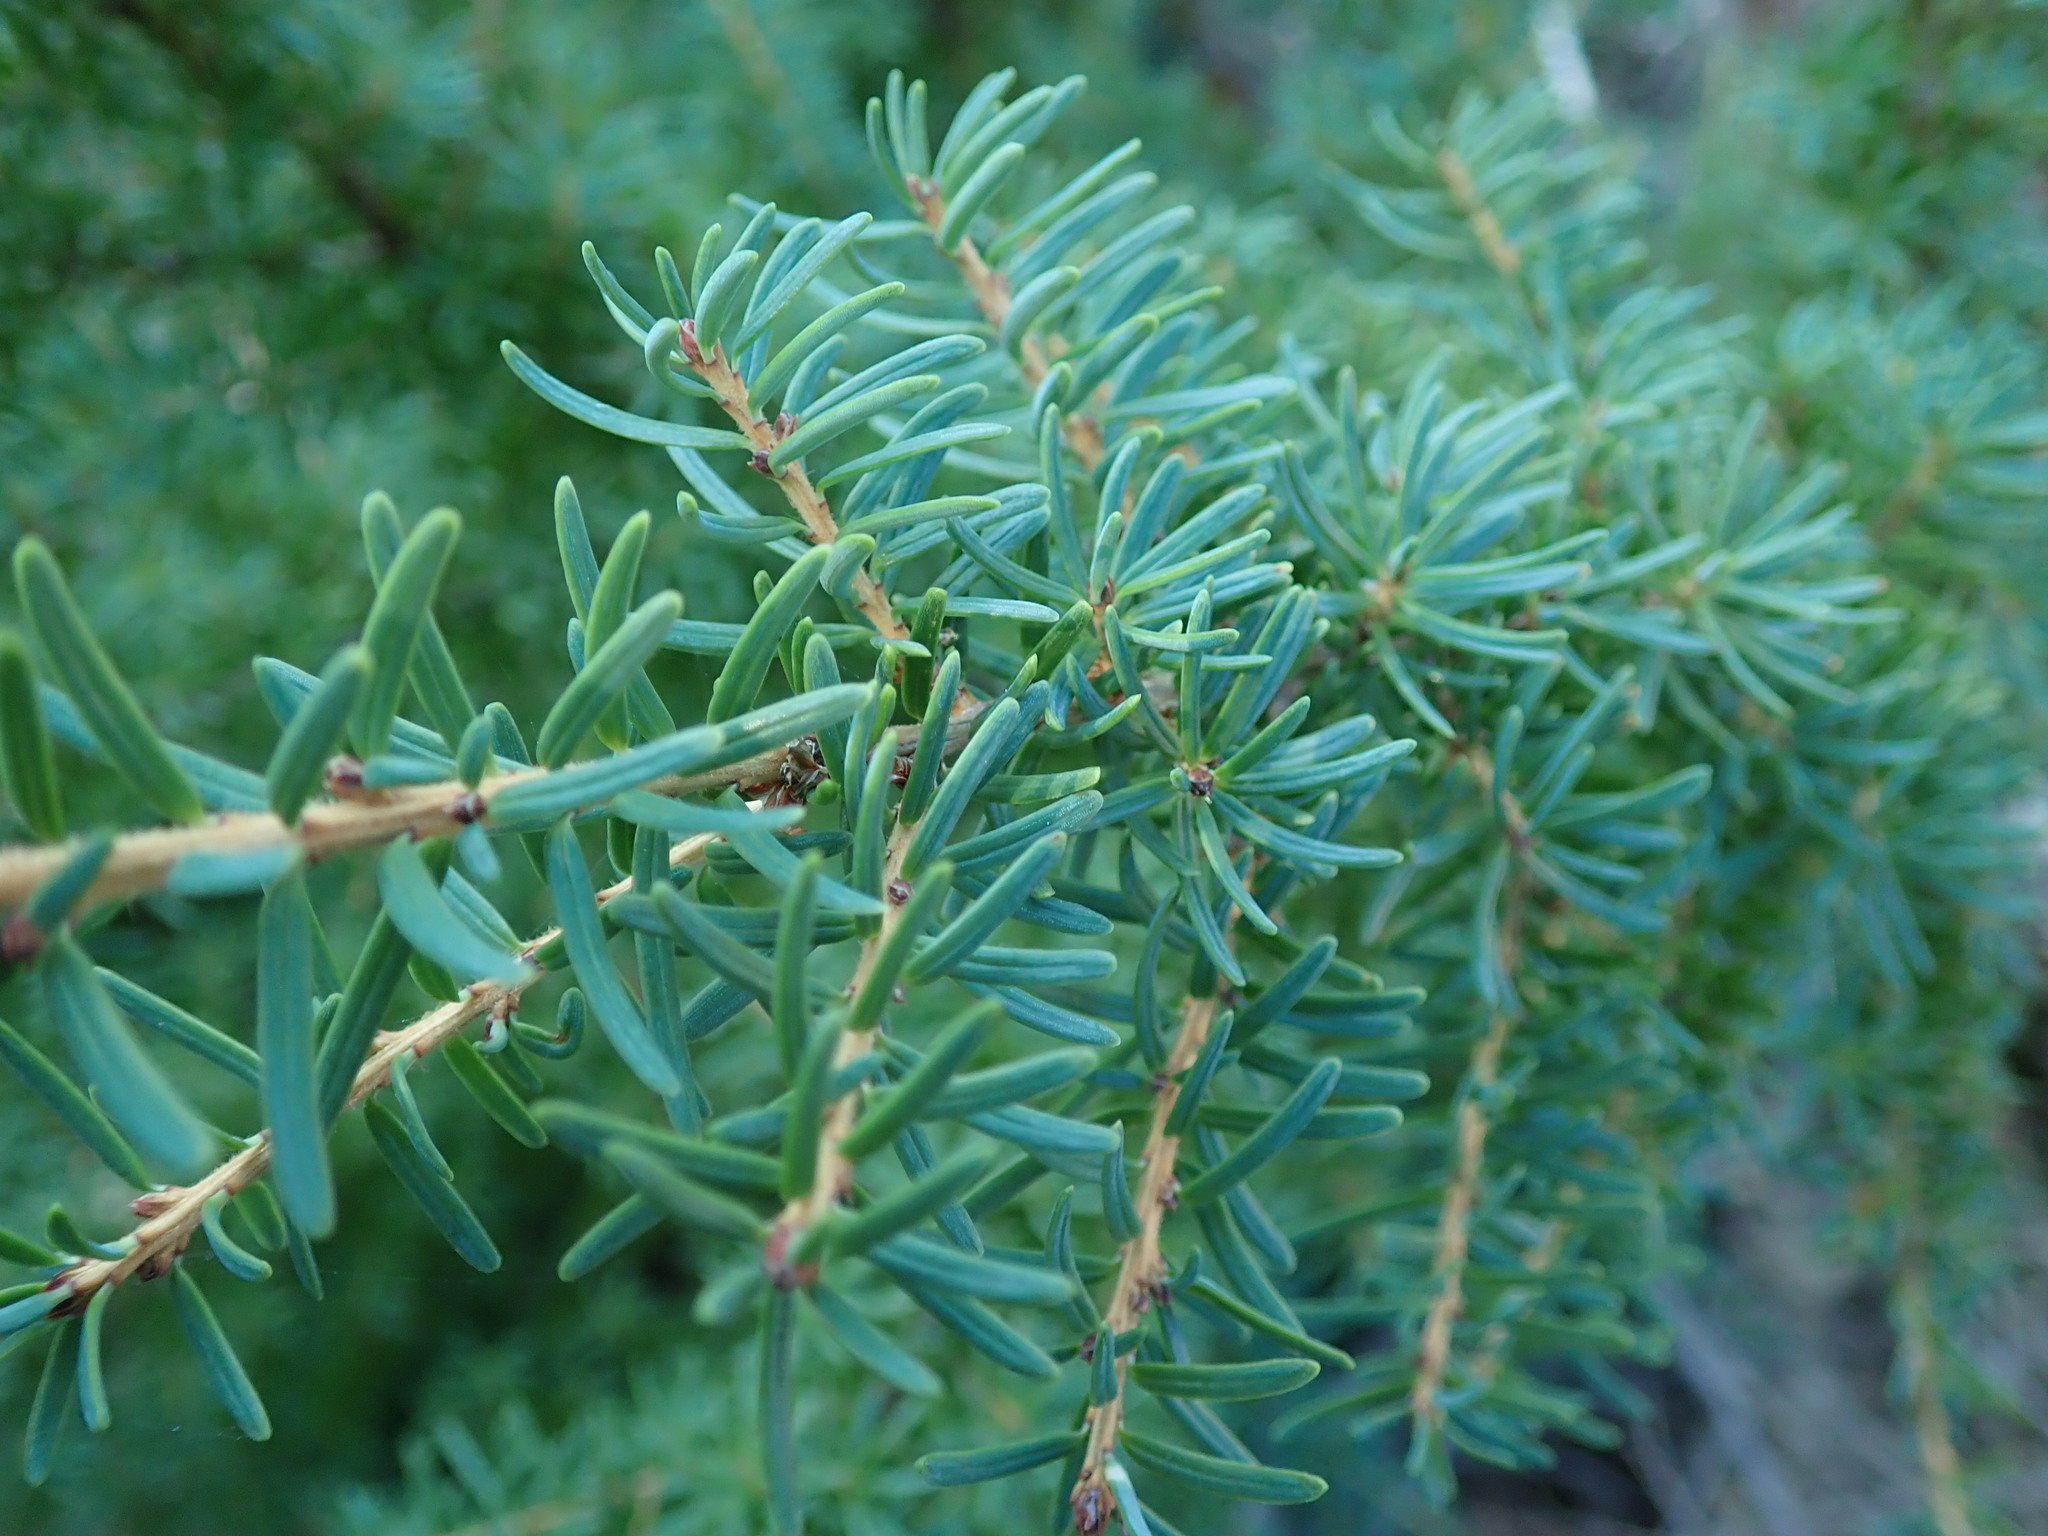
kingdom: Plantae
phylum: Tracheophyta
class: Pinopsida
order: Pinales
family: Pinaceae
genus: Tsuga
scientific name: Tsuga mertensiana
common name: Mountain hemlock
